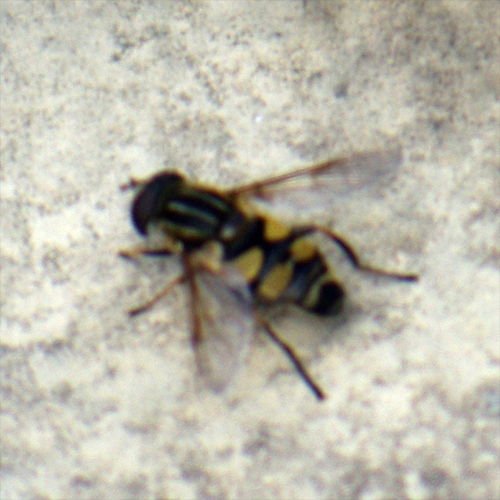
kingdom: Animalia
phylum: Arthropoda
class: Insecta
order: Diptera
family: Syrphidae
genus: Helophilus
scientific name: Helophilus fasciatus
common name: Narrow-headed marsh fly
